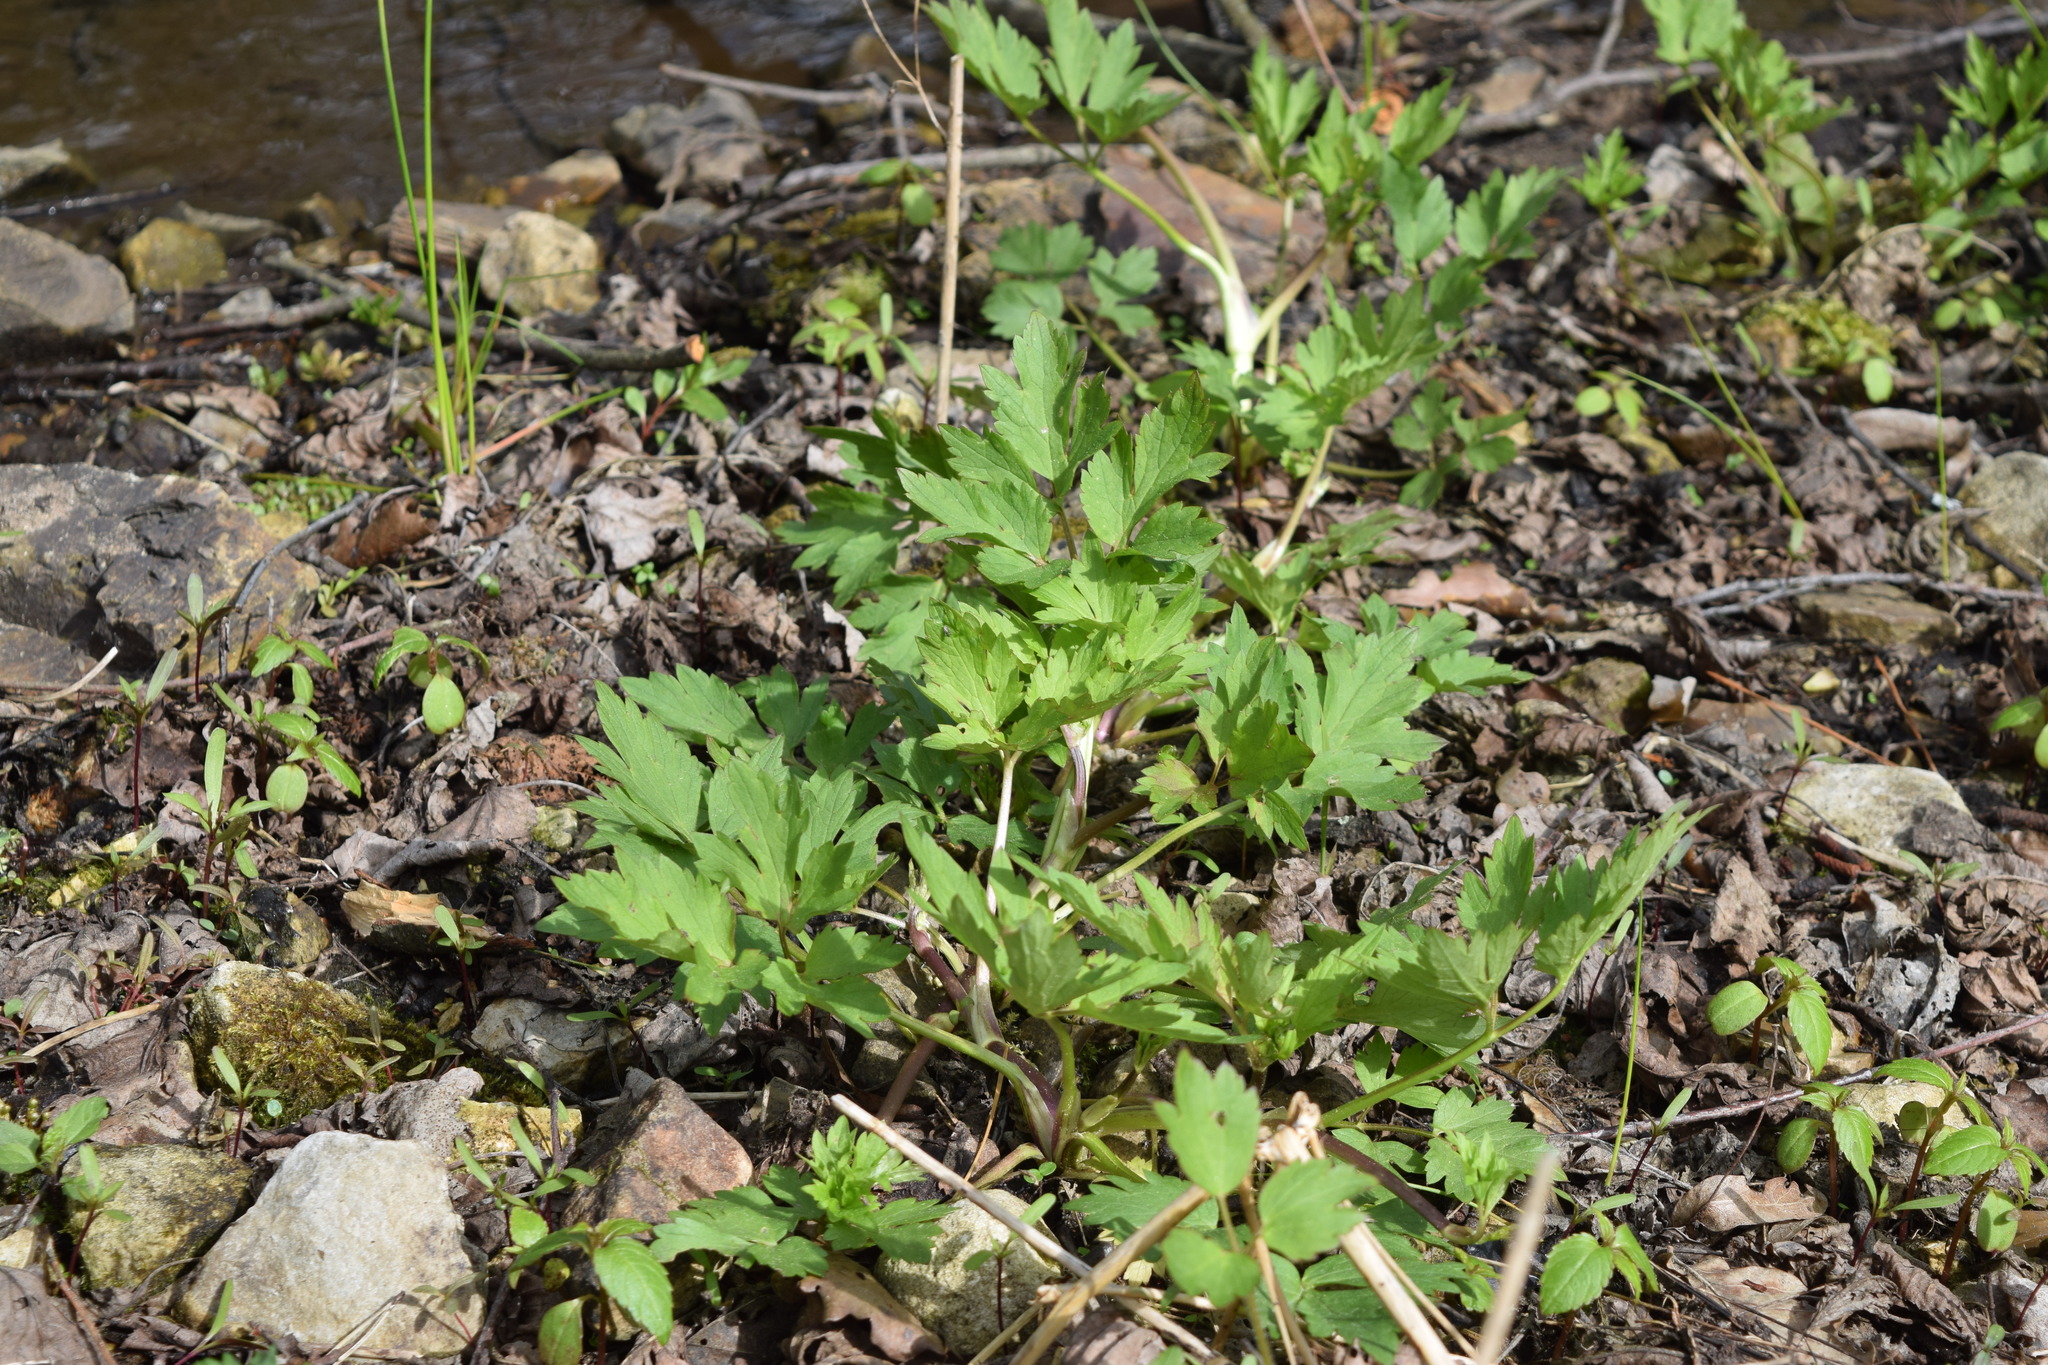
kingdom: Plantae
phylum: Tracheophyta
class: Magnoliopsida
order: Ranunculales
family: Ranunculaceae
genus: Ranunculus
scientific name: Ranunculus repens
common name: Creeping buttercup
